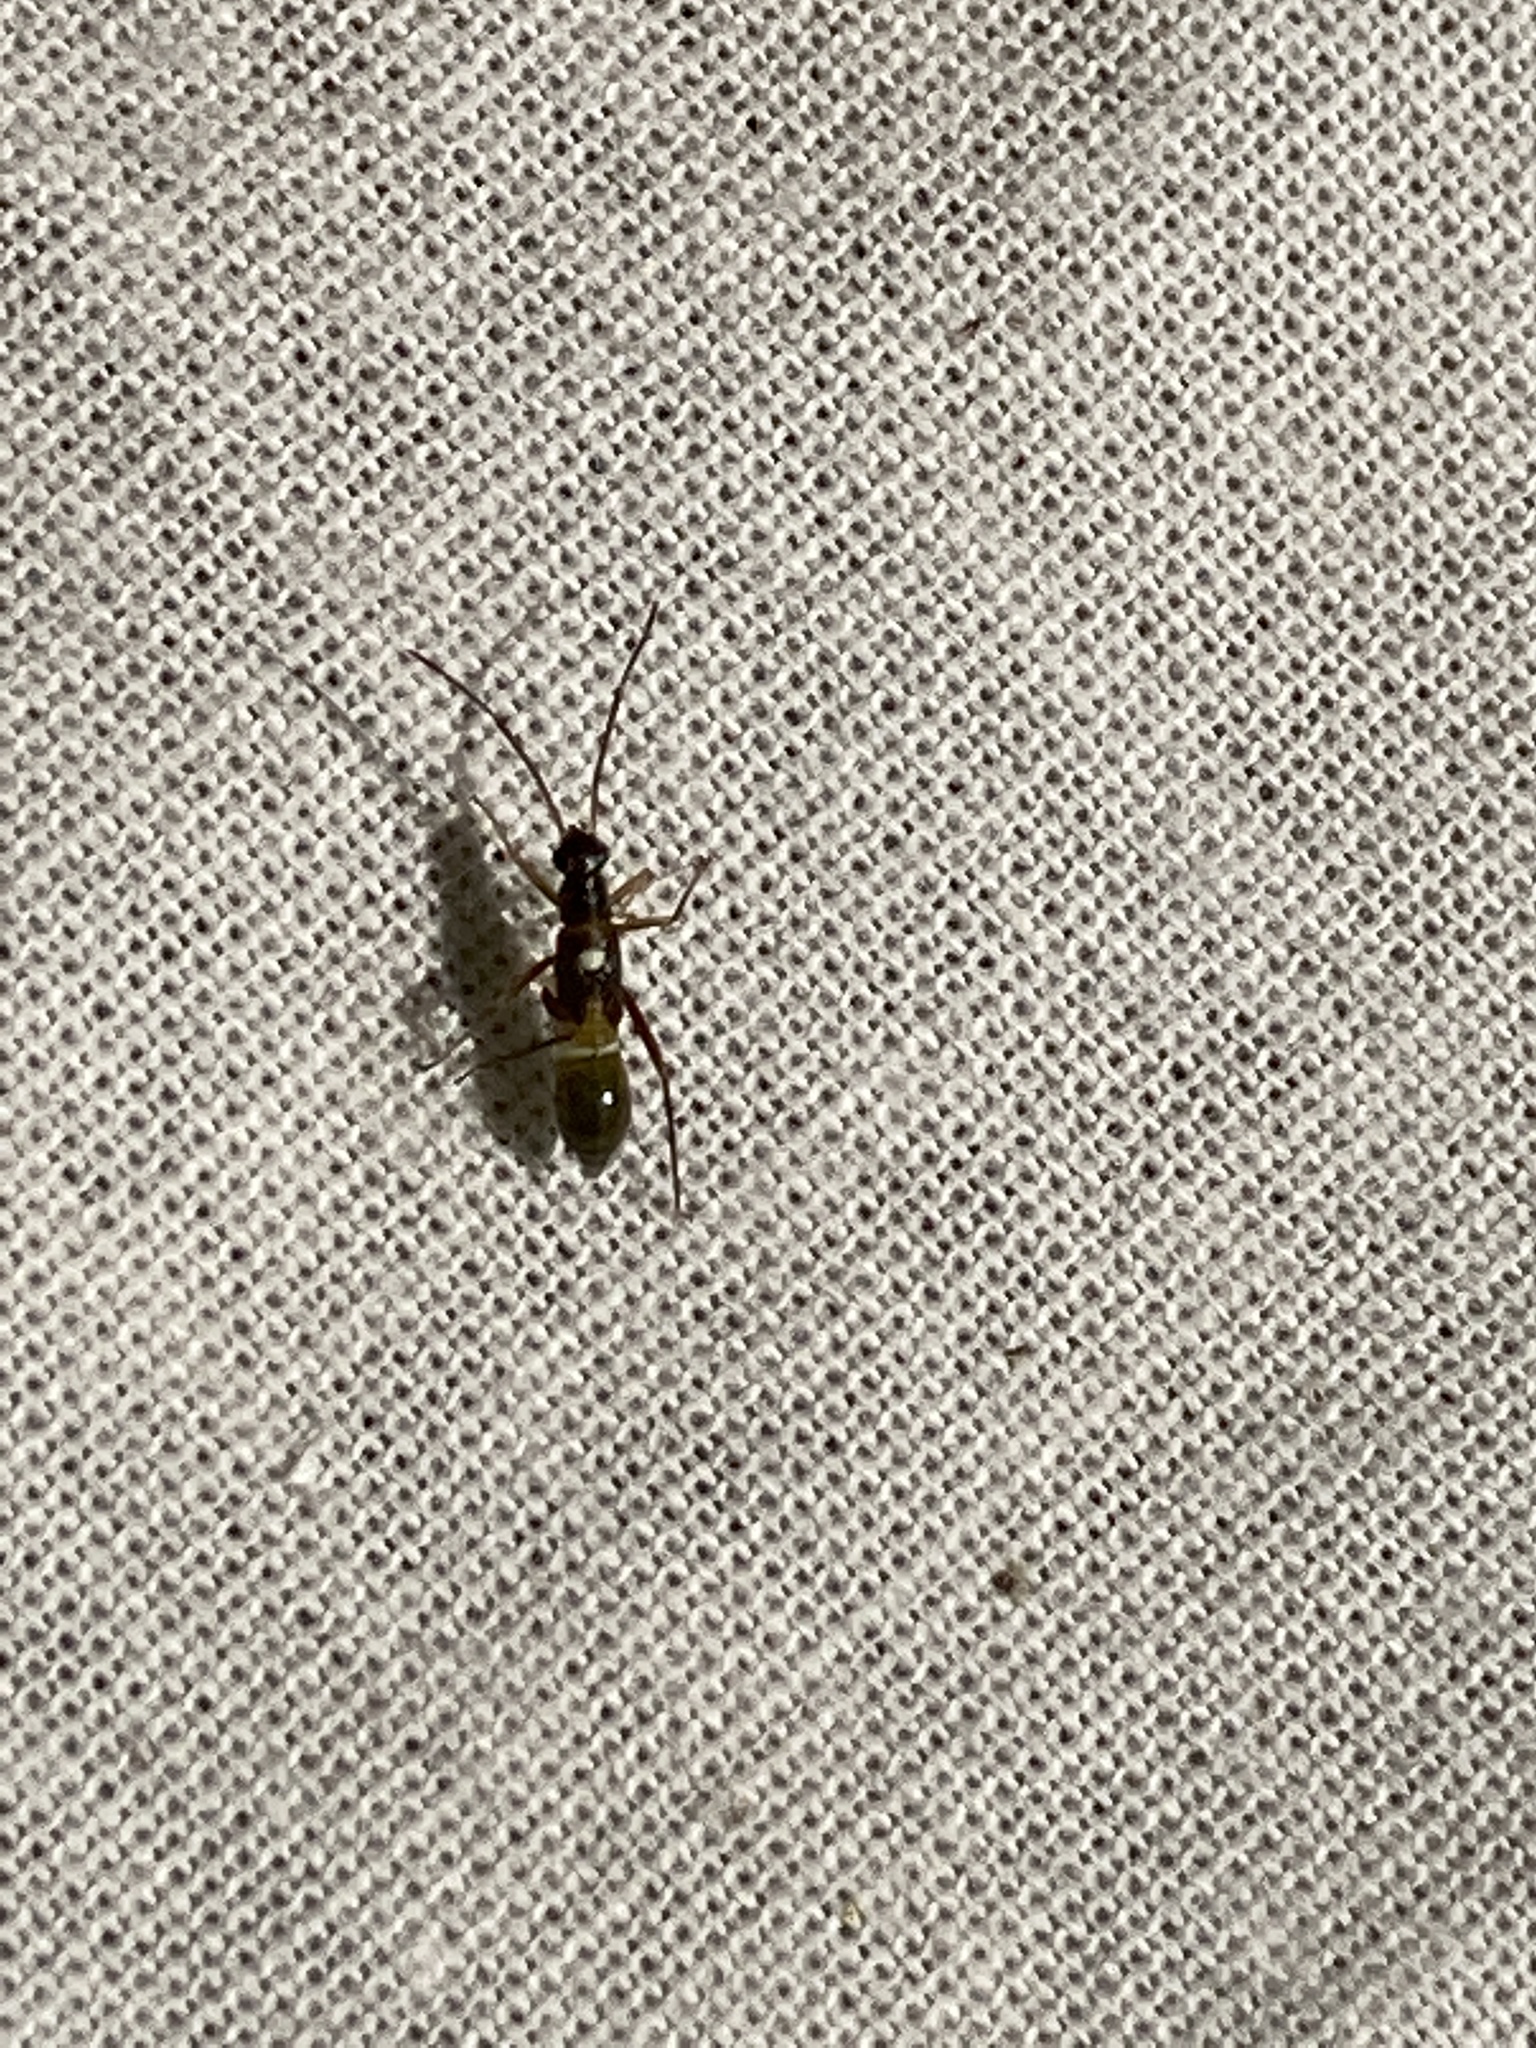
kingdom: Animalia
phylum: Arthropoda
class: Insecta
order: Hemiptera
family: Miridae
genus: Pseudoxenetus
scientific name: Pseudoxenetus regalis
